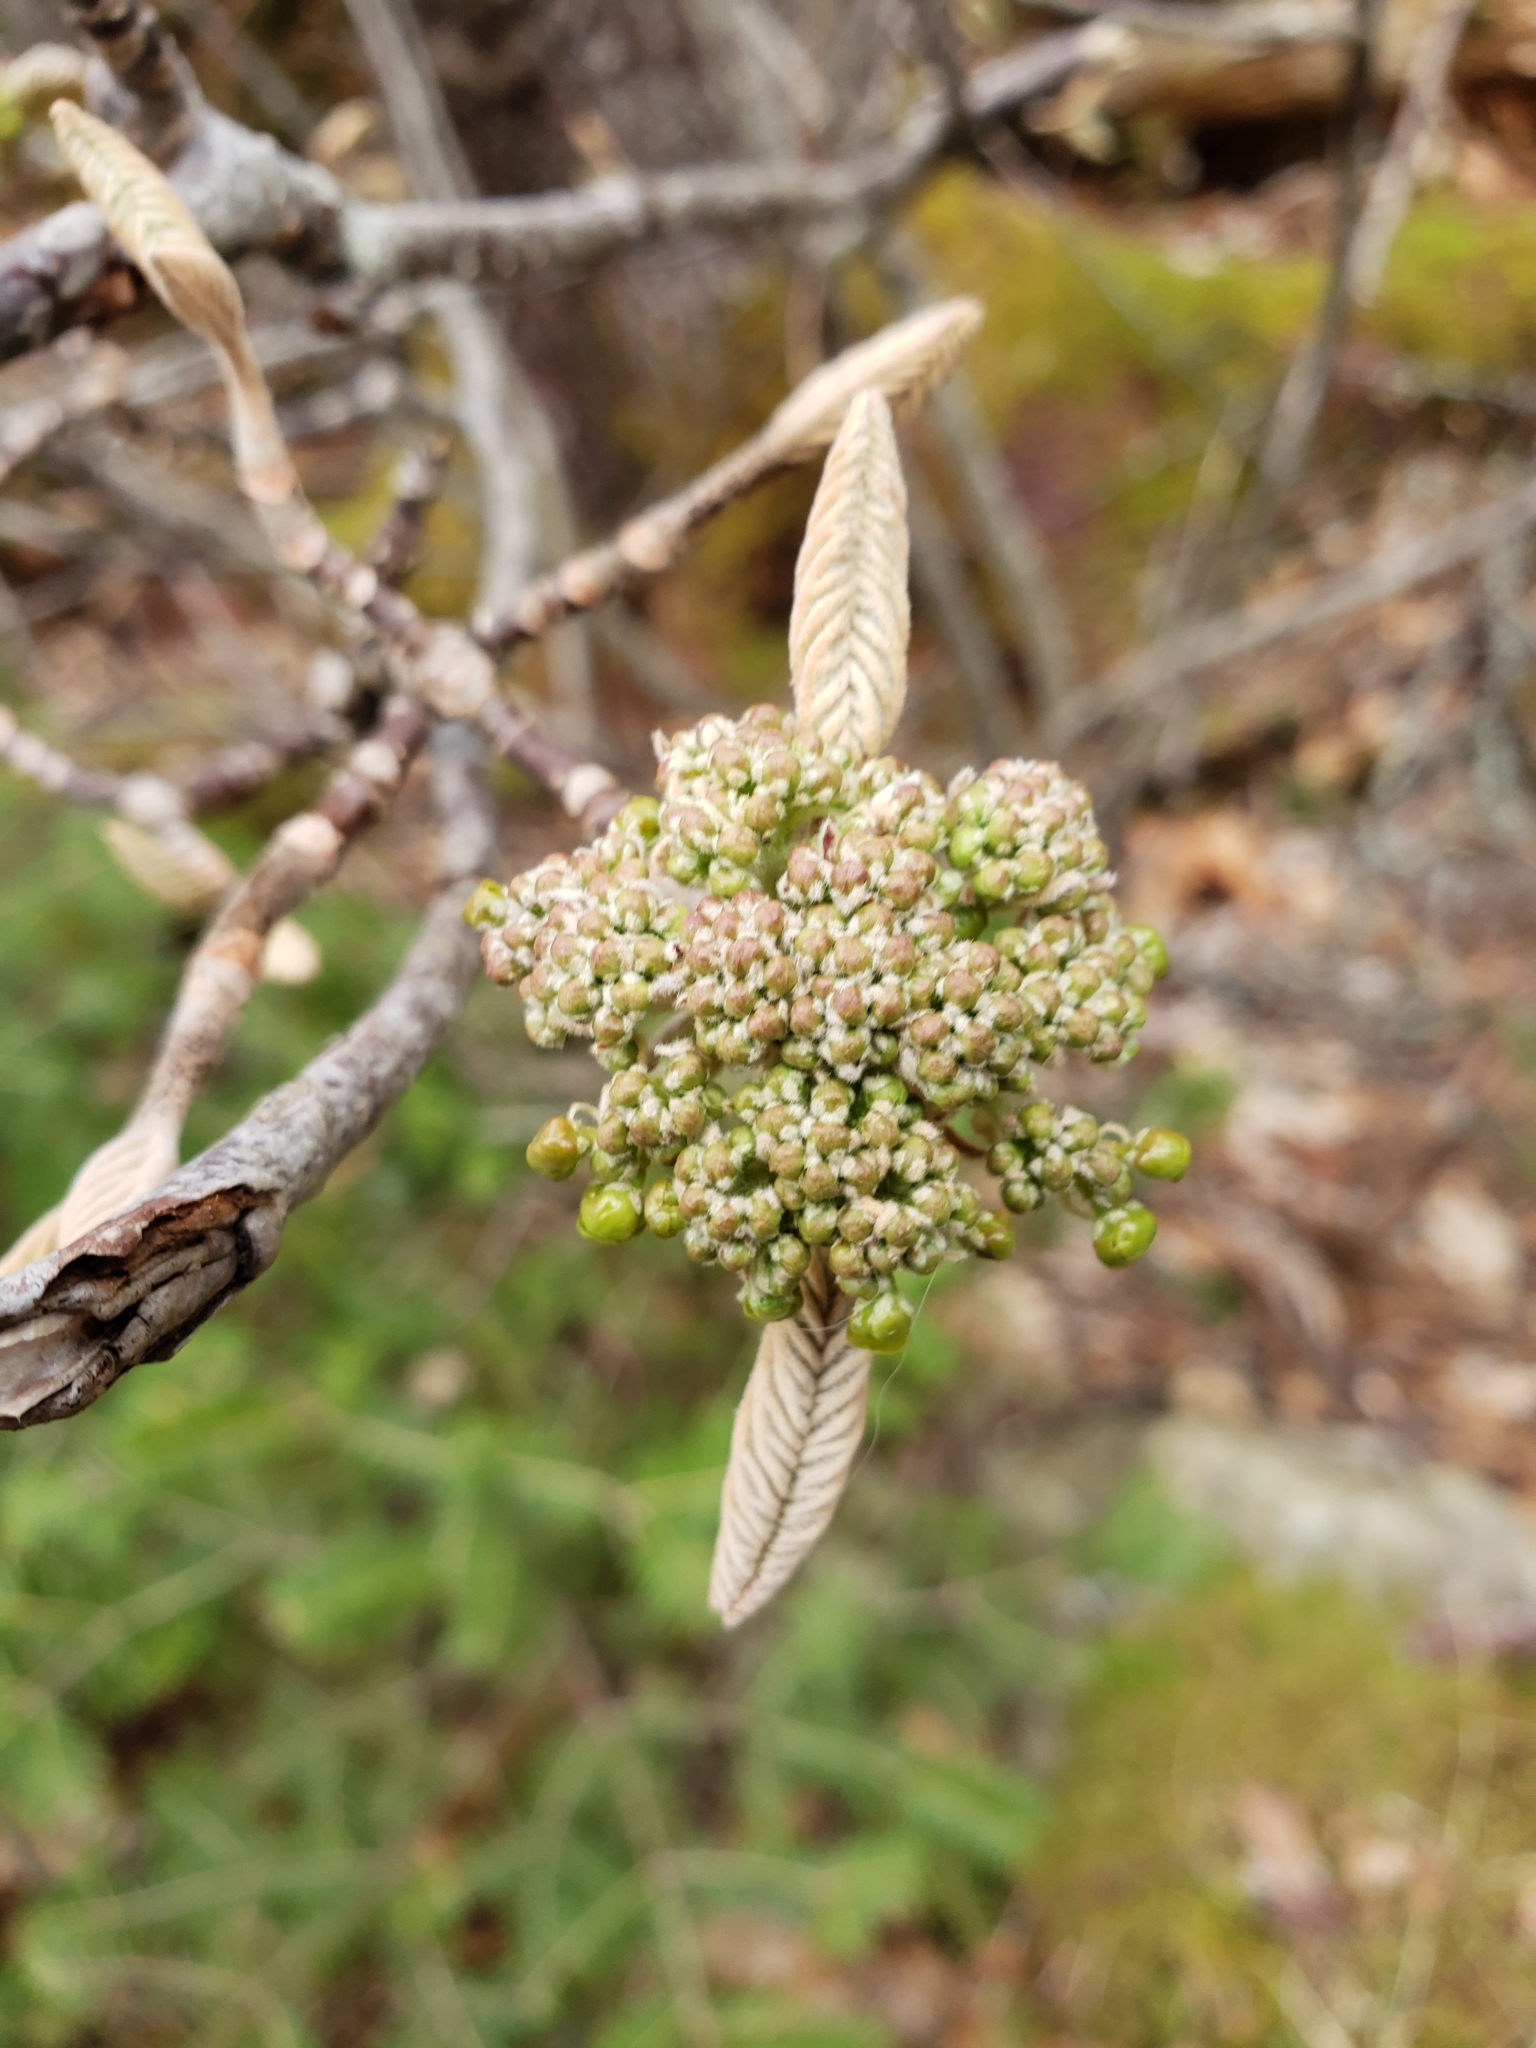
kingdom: Plantae
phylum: Tracheophyta
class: Magnoliopsida
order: Dipsacales
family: Viburnaceae
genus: Viburnum
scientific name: Viburnum lantanoides
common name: Hobblebush
